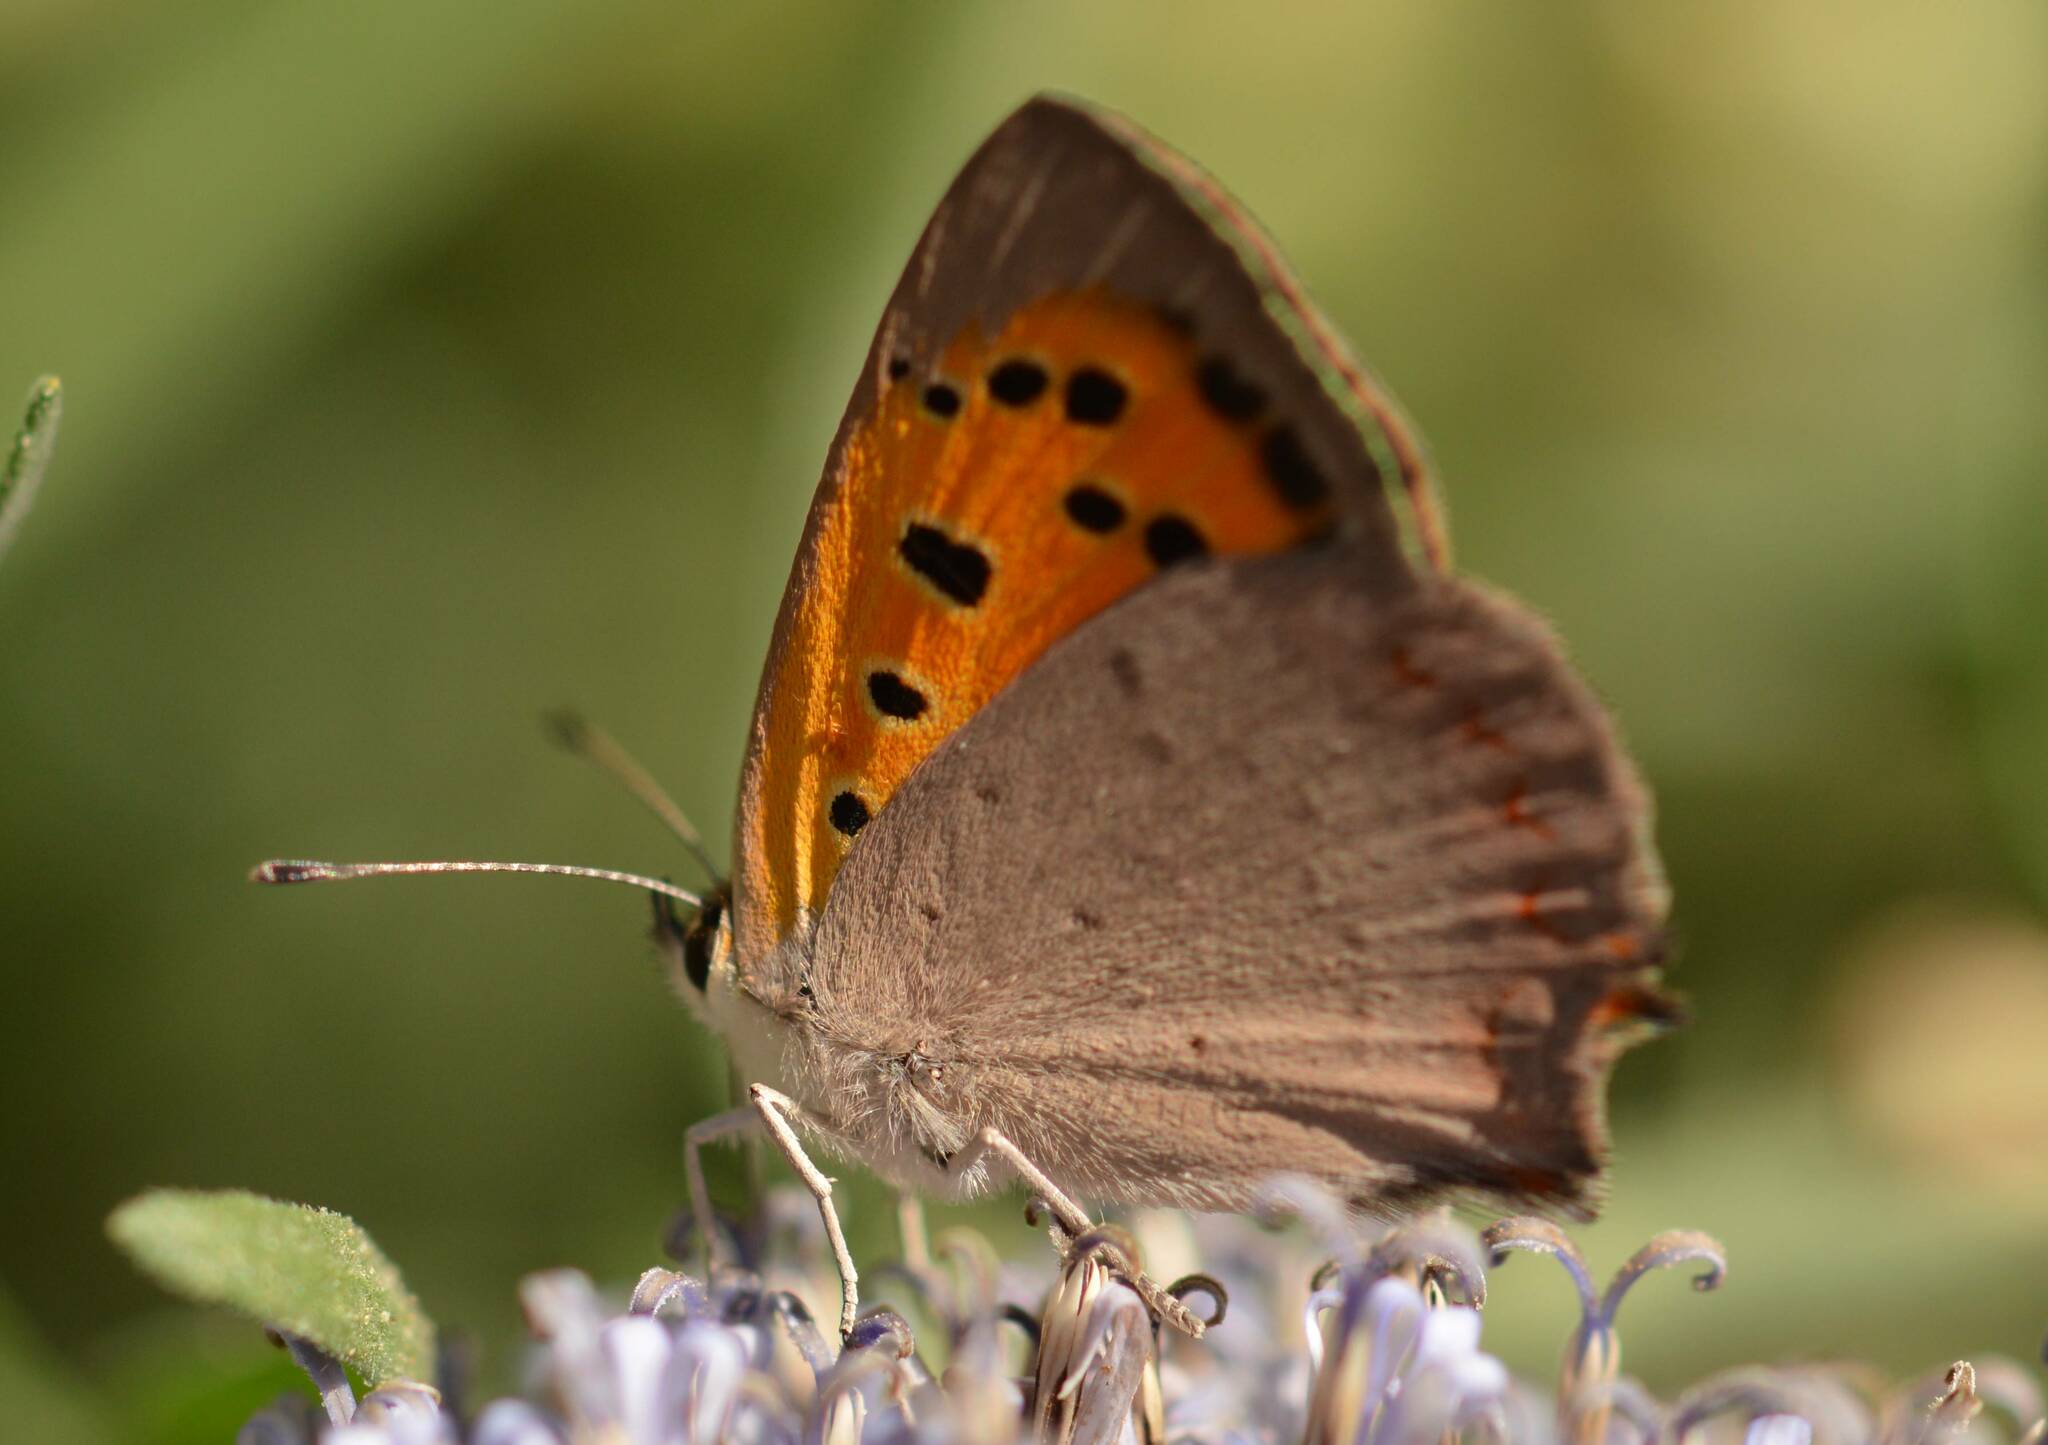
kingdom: Animalia
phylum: Arthropoda
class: Insecta
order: Lepidoptera
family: Lycaenidae
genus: Lycaena
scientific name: Lycaena phlaeas
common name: Small copper
